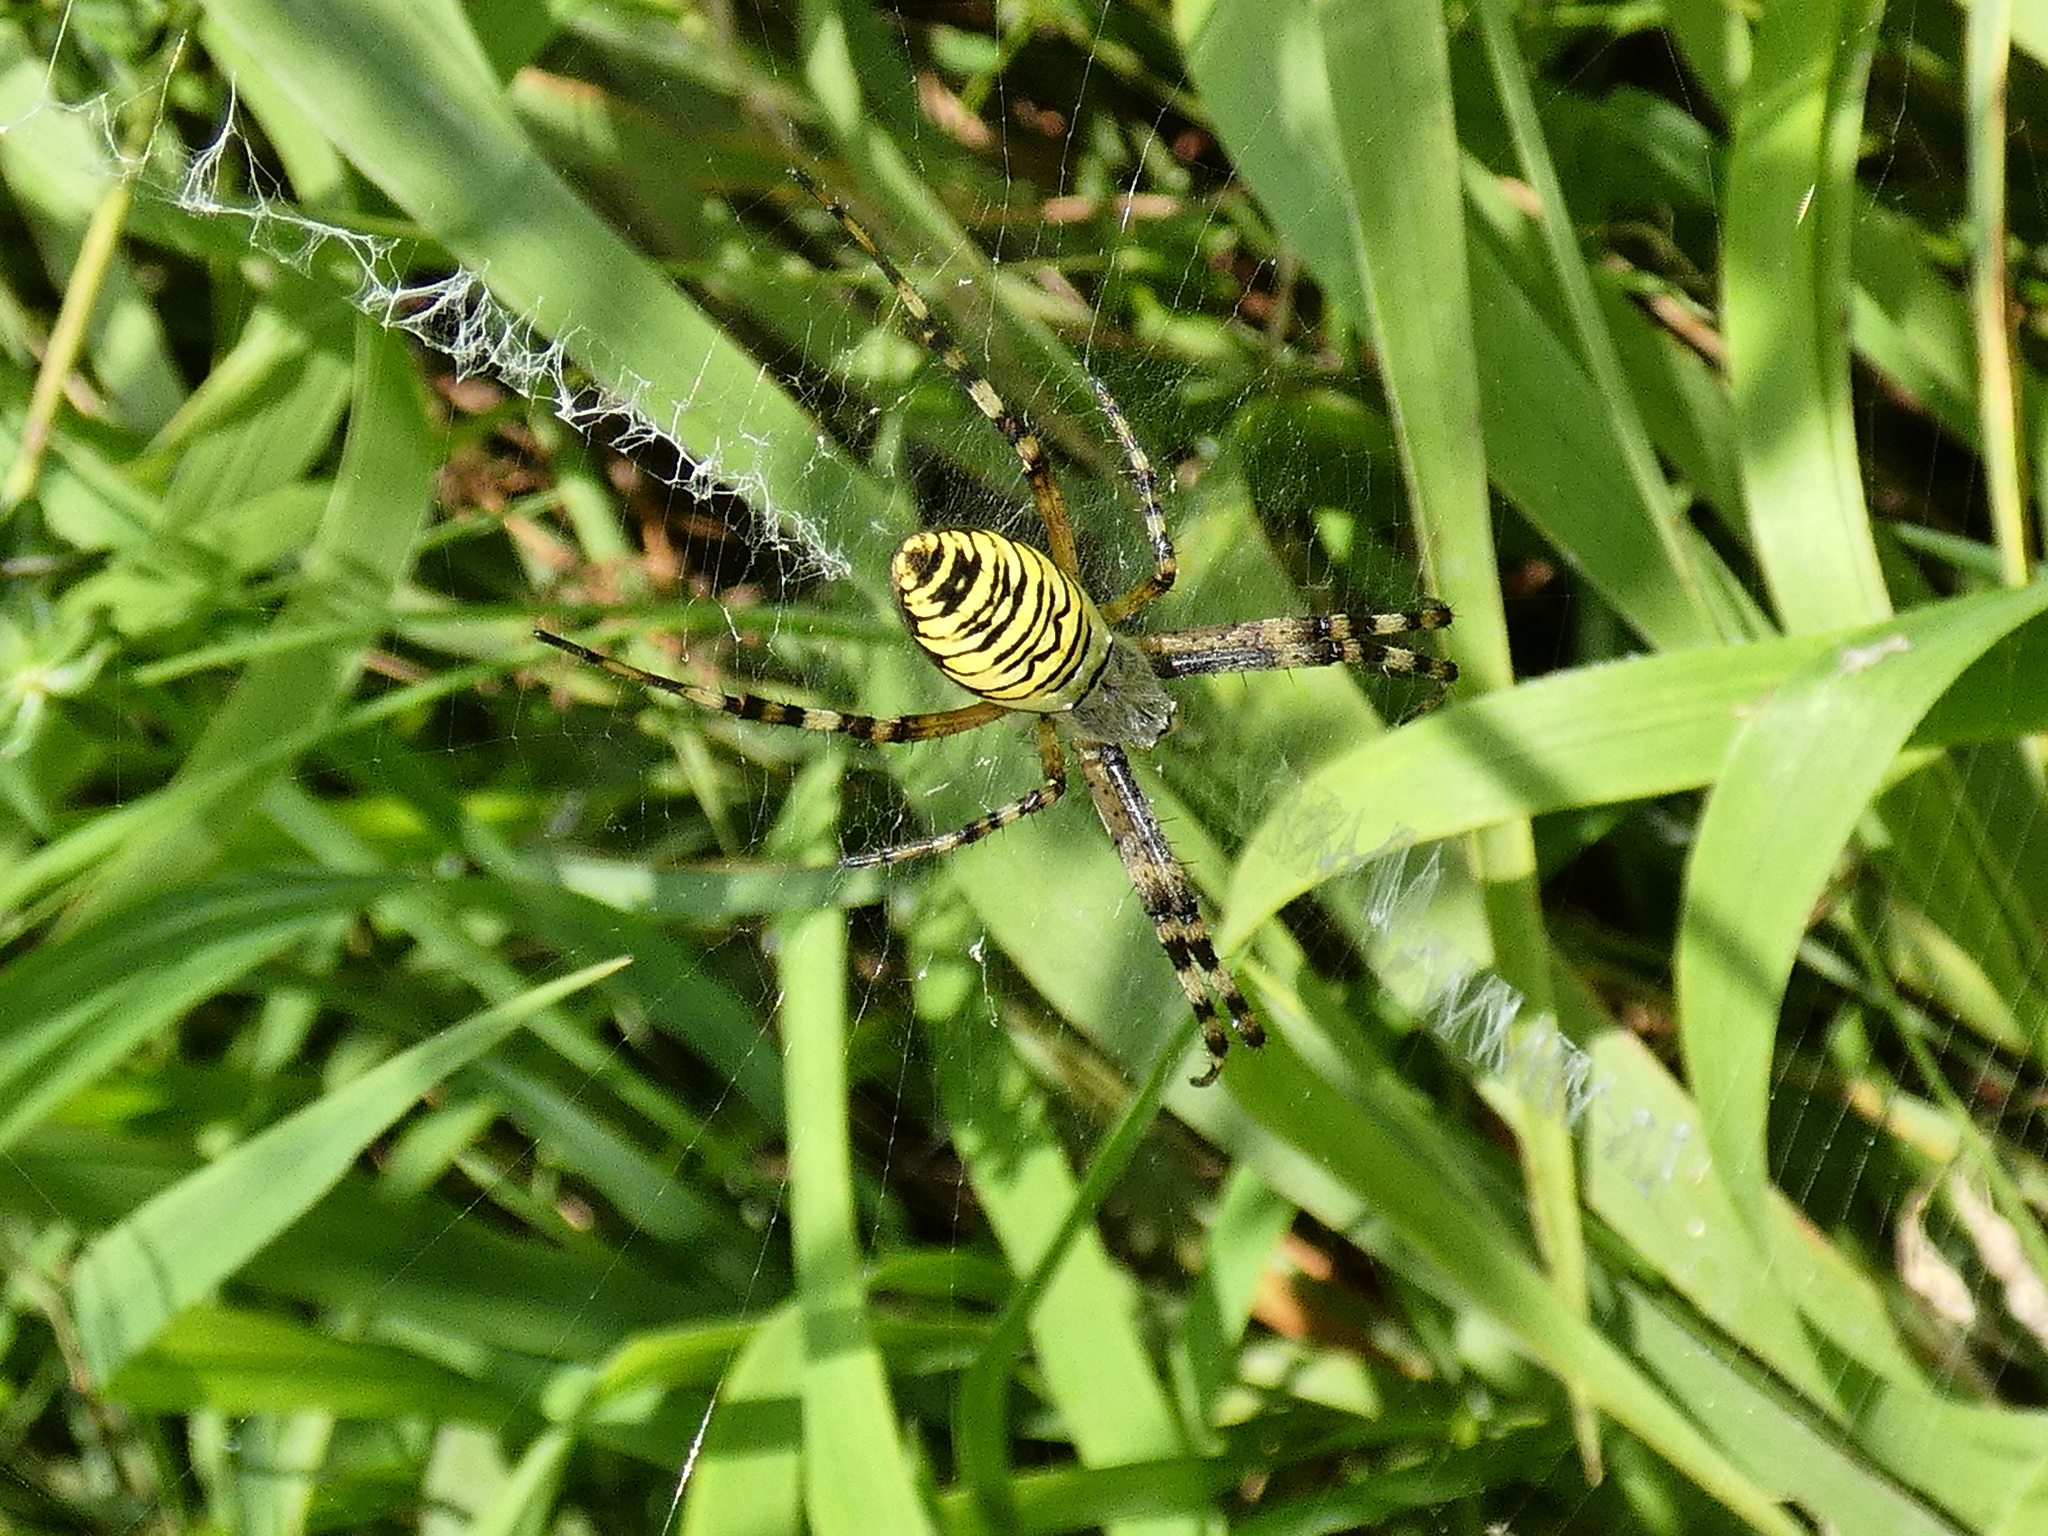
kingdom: Animalia
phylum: Arthropoda
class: Arachnida
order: Araneae
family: Araneidae
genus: Argiope
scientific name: Argiope bruennichi
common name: Wasp spider
